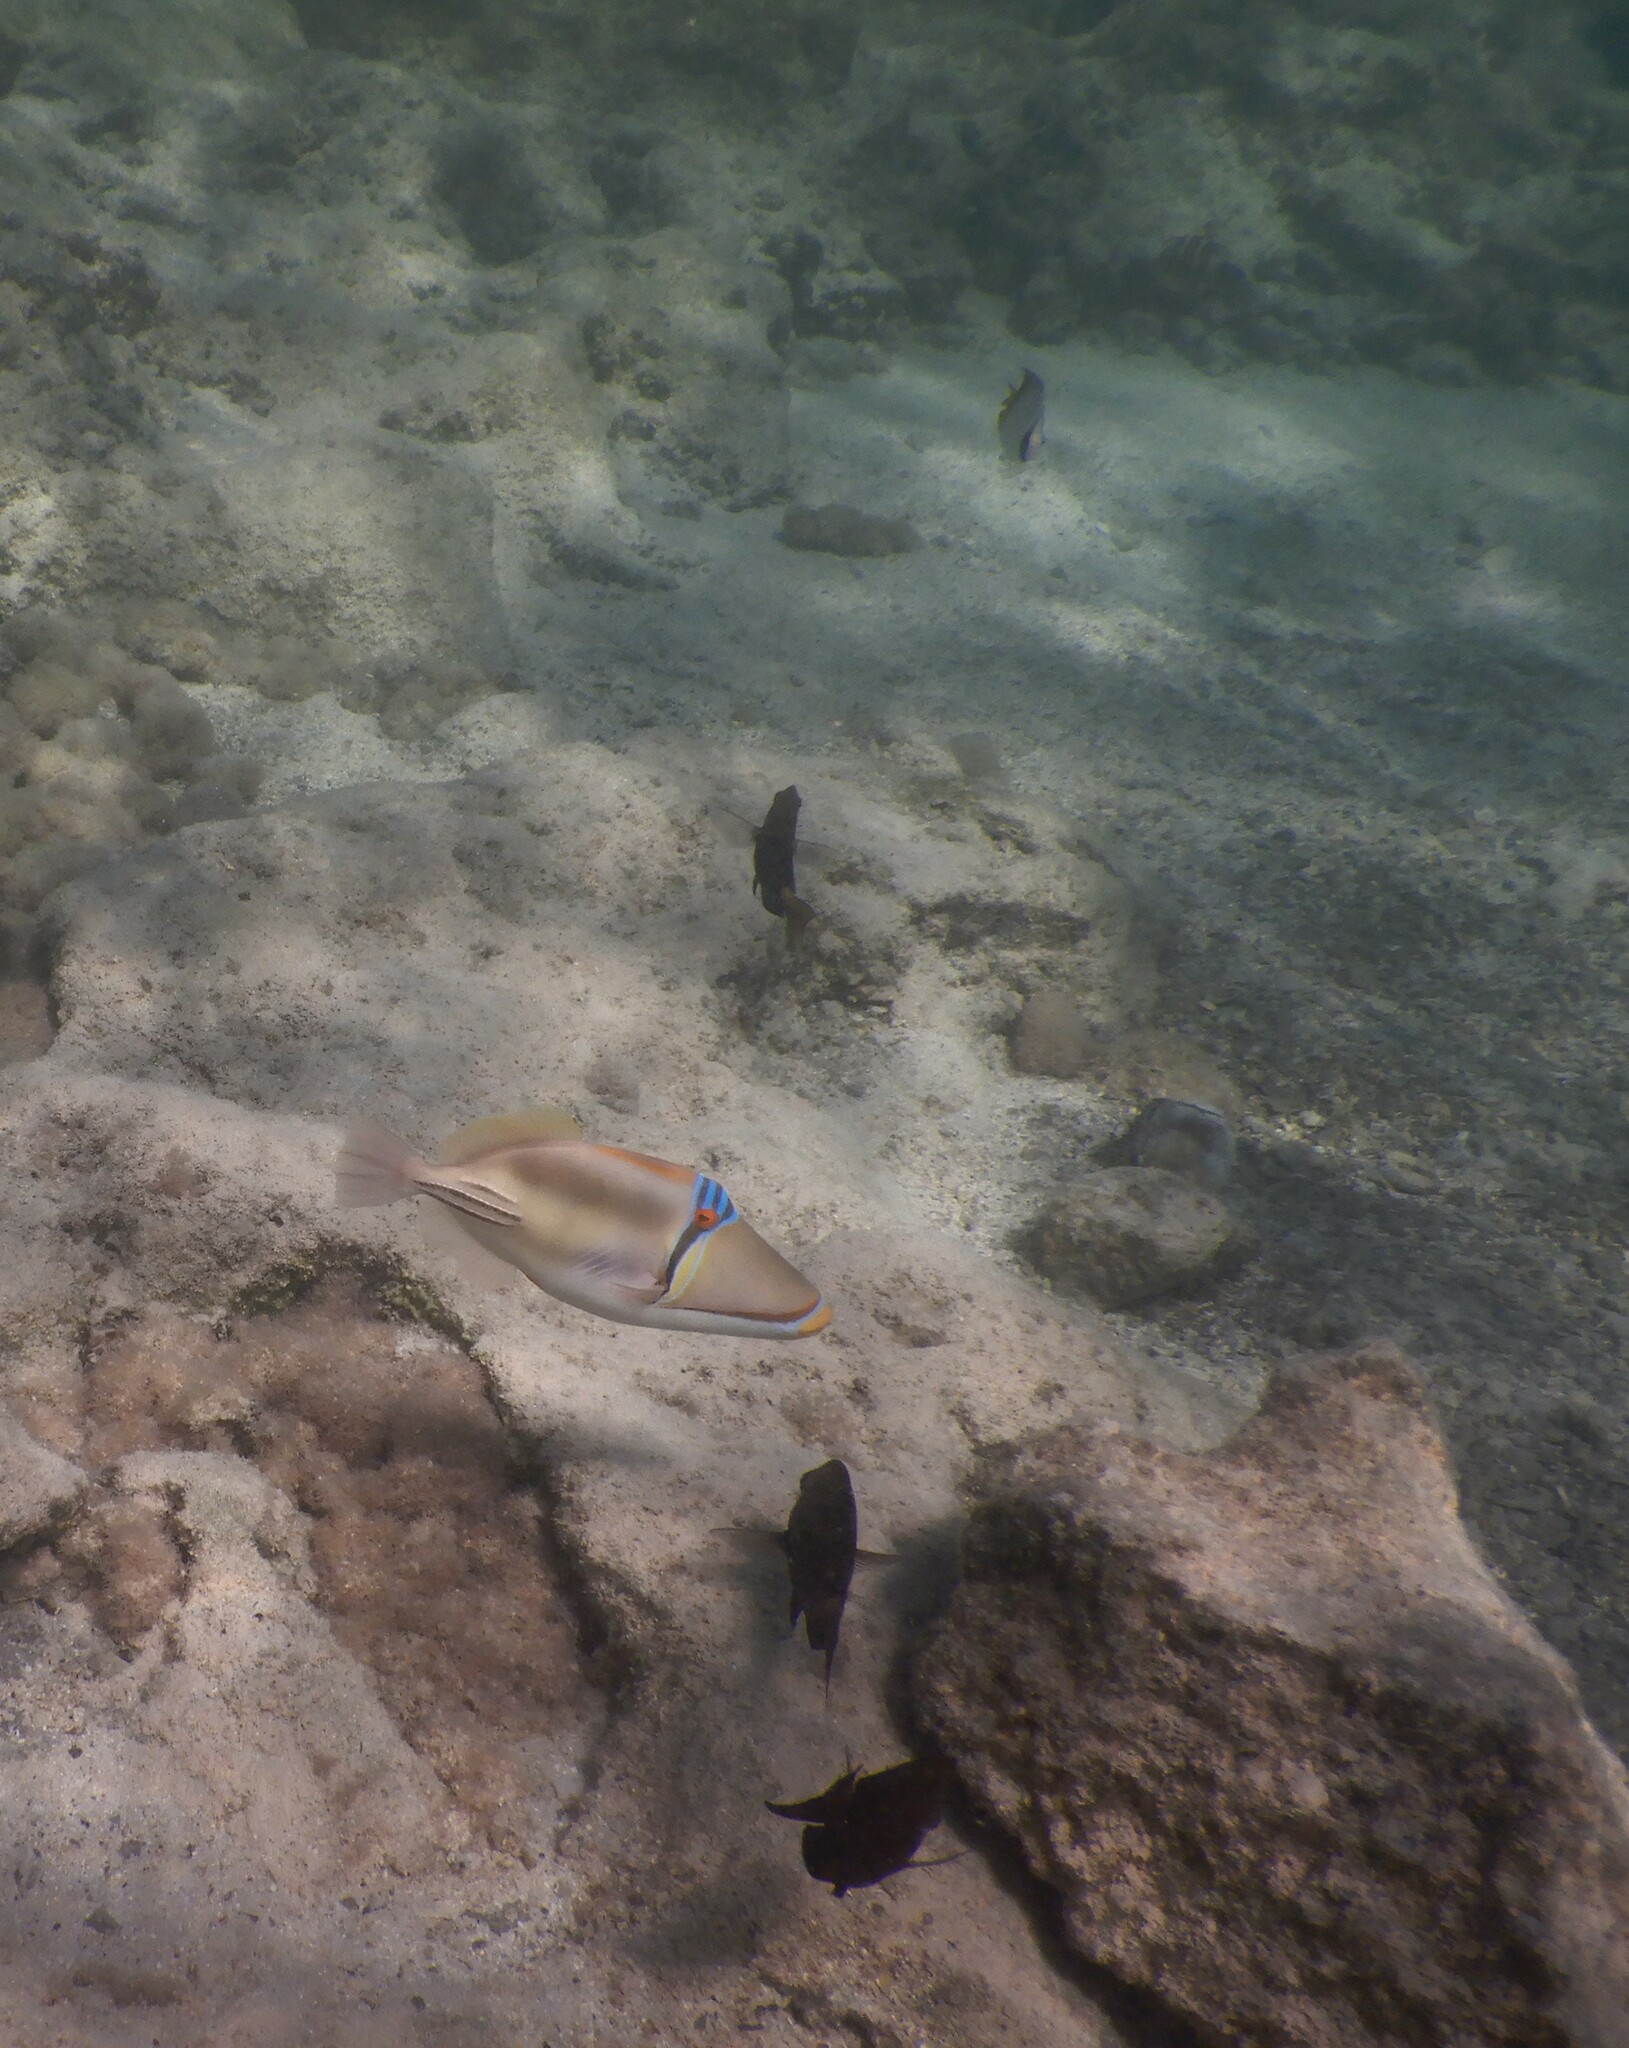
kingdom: Animalia
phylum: Chordata
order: Tetraodontiformes
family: Balistidae
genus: Rhinecanthus
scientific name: Rhinecanthus assasi
